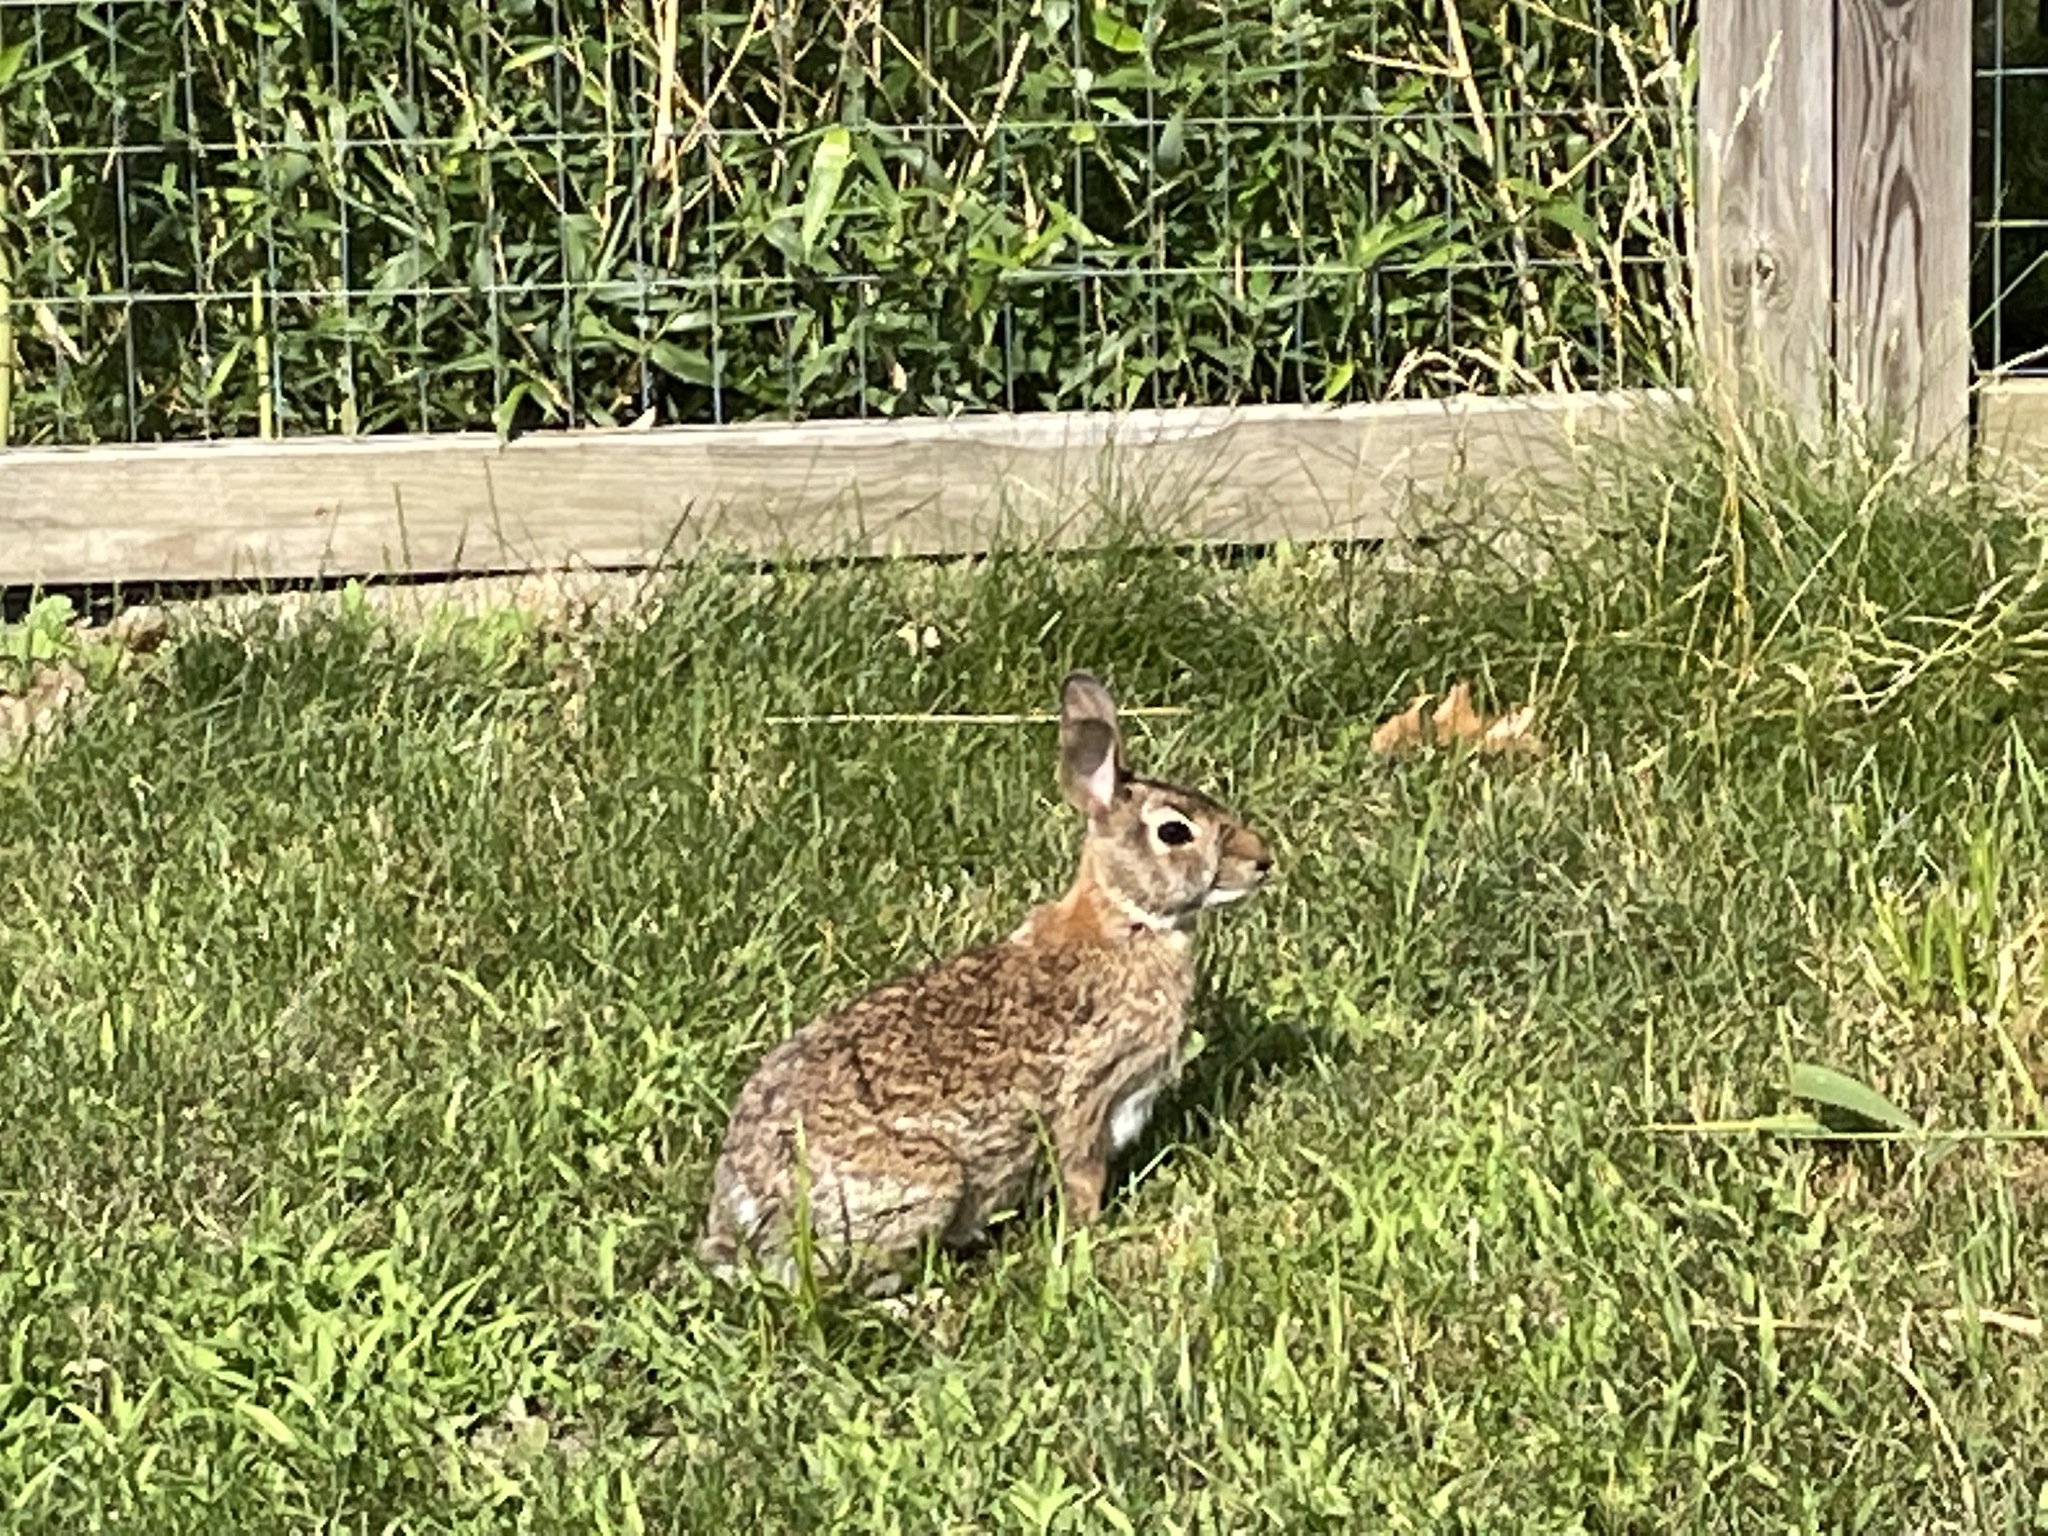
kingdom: Animalia
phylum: Chordata
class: Mammalia
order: Lagomorpha
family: Leporidae
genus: Sylvilagus
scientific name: Sylvilagus floridanus
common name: Eastern cottontail
